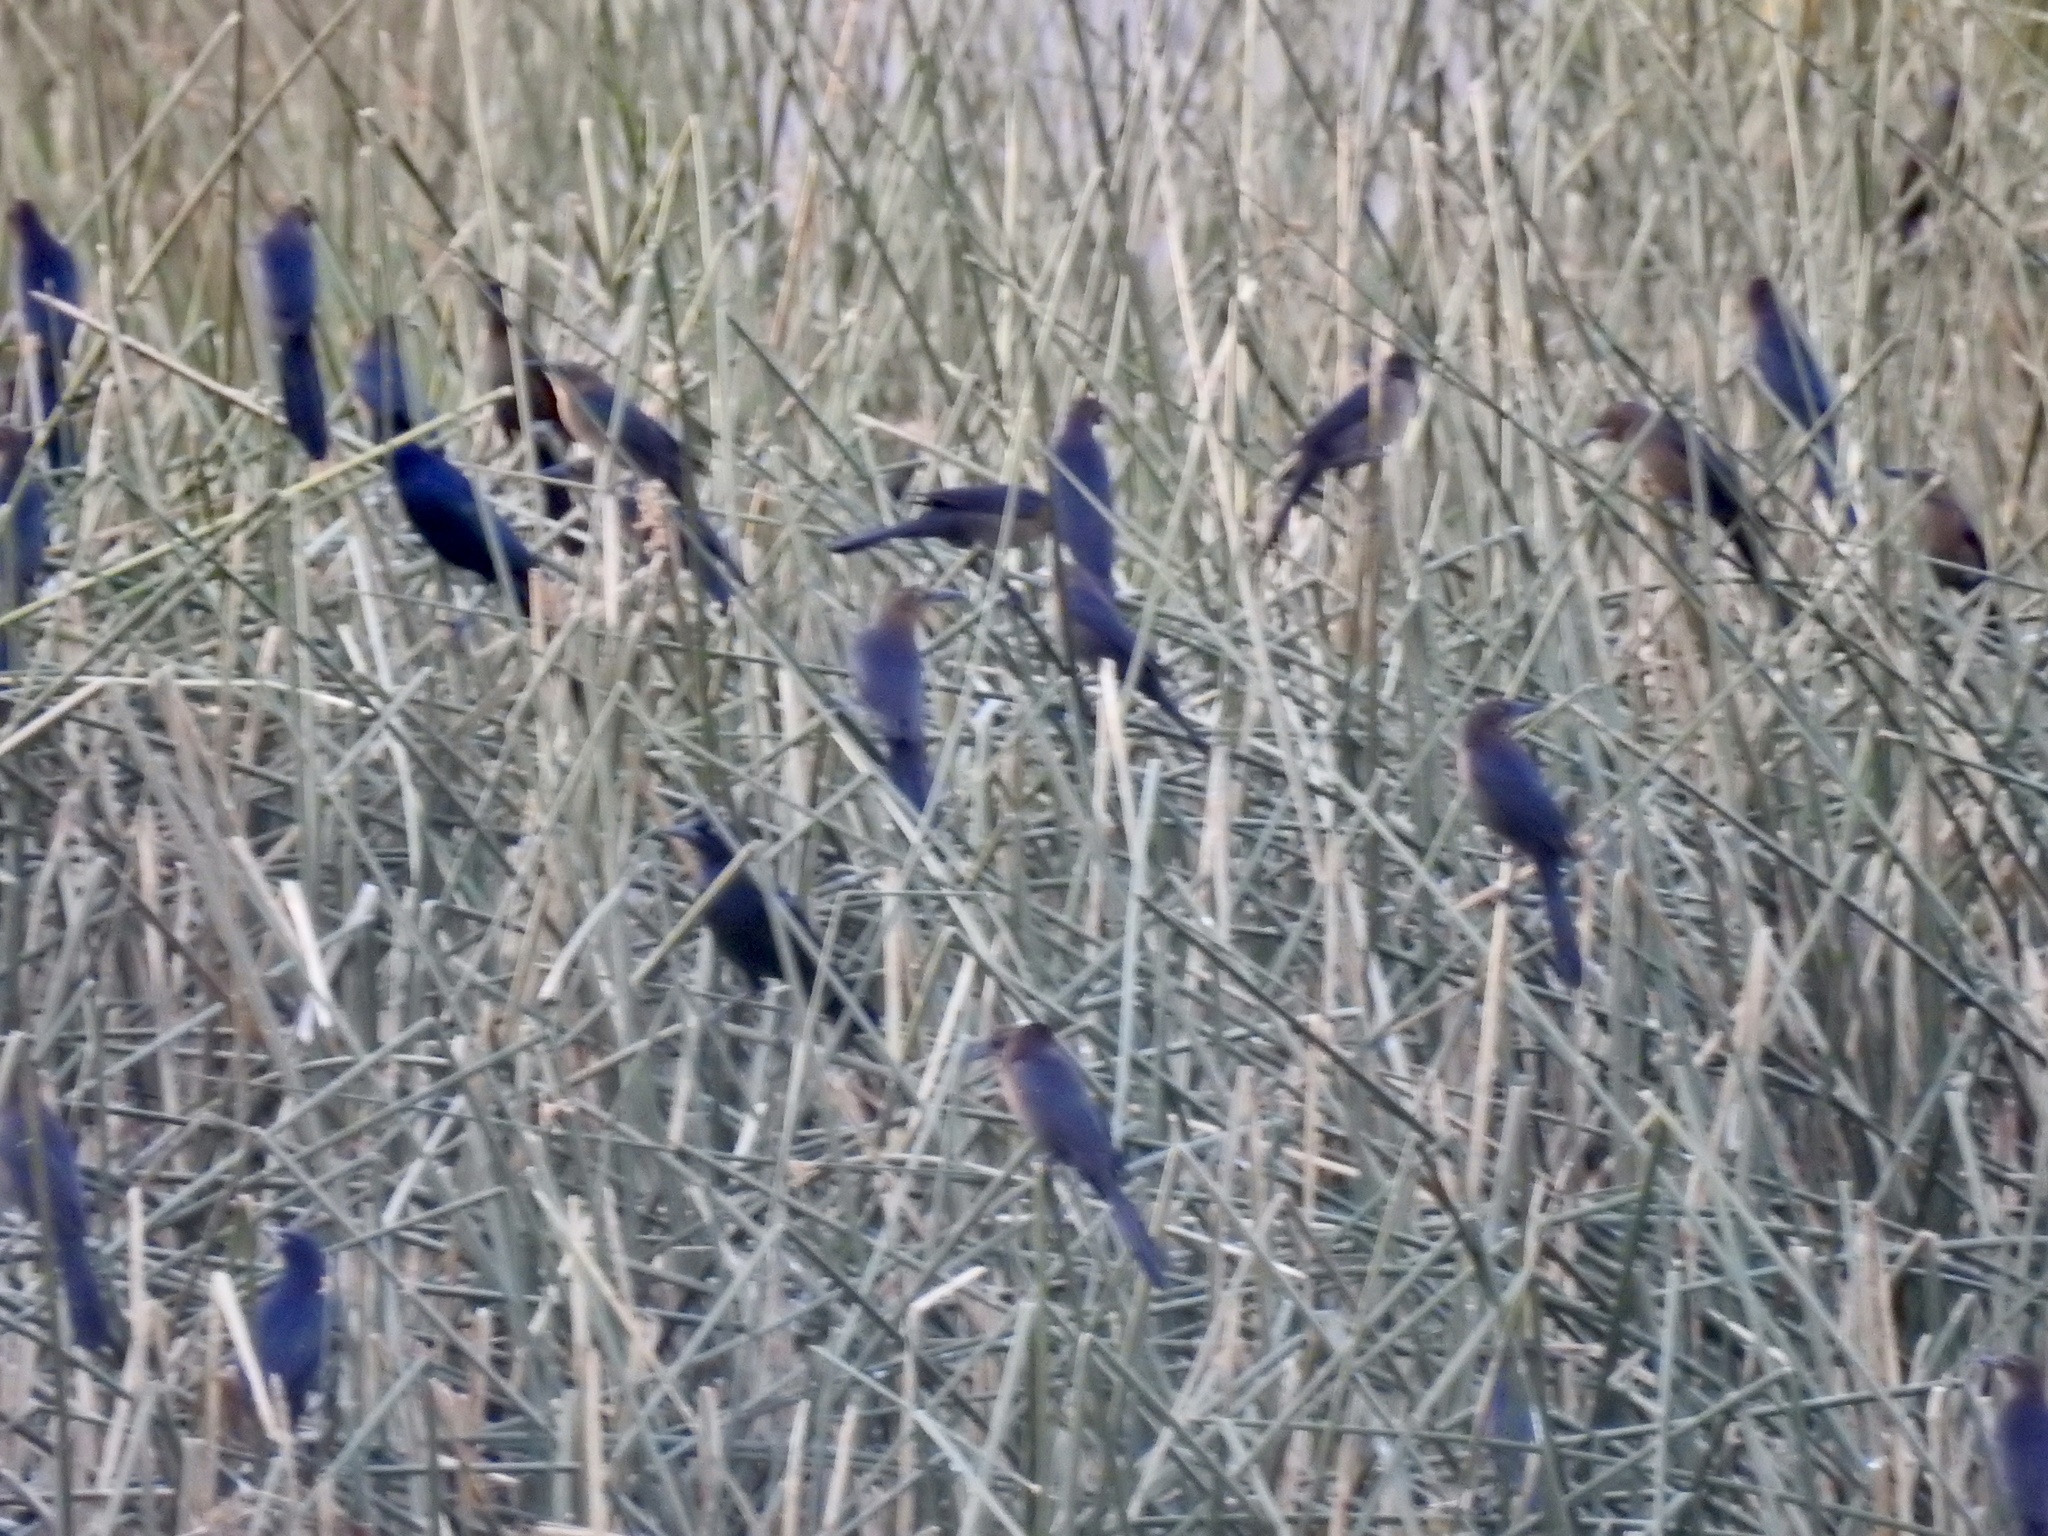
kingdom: Animalia
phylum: Chordata
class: Aves
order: Passeriformes
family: Icteridae
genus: Quiscalus
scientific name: Quiscalus mexicanus
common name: Great-tailed grackle
